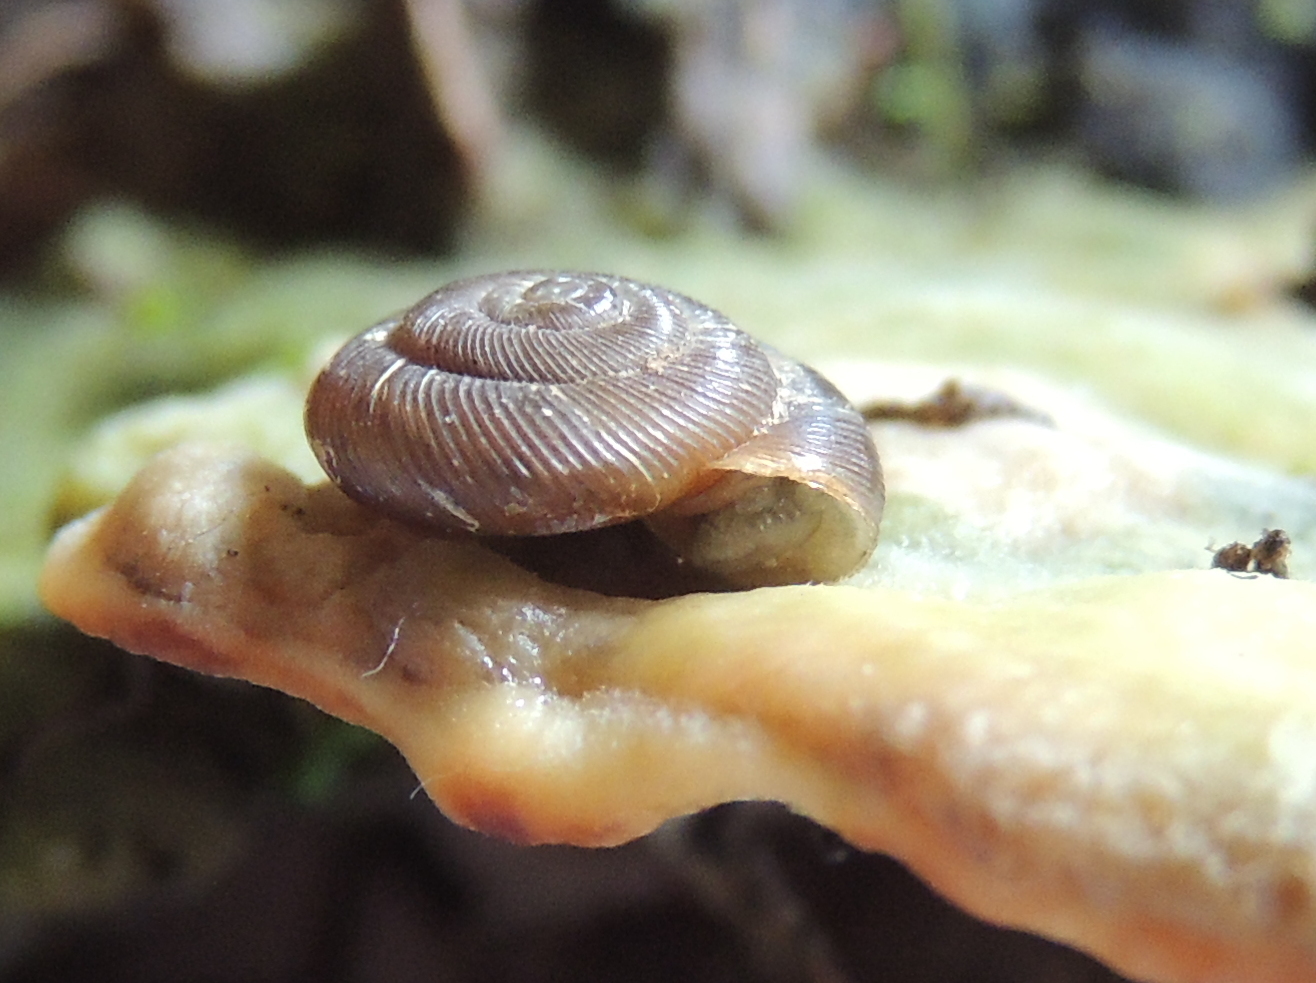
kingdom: Animalia
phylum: Mollusca
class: Gastropoda
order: Stylommatophora
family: Discidae
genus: Discus
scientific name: Discus ruderatus
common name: Brown disc snail
